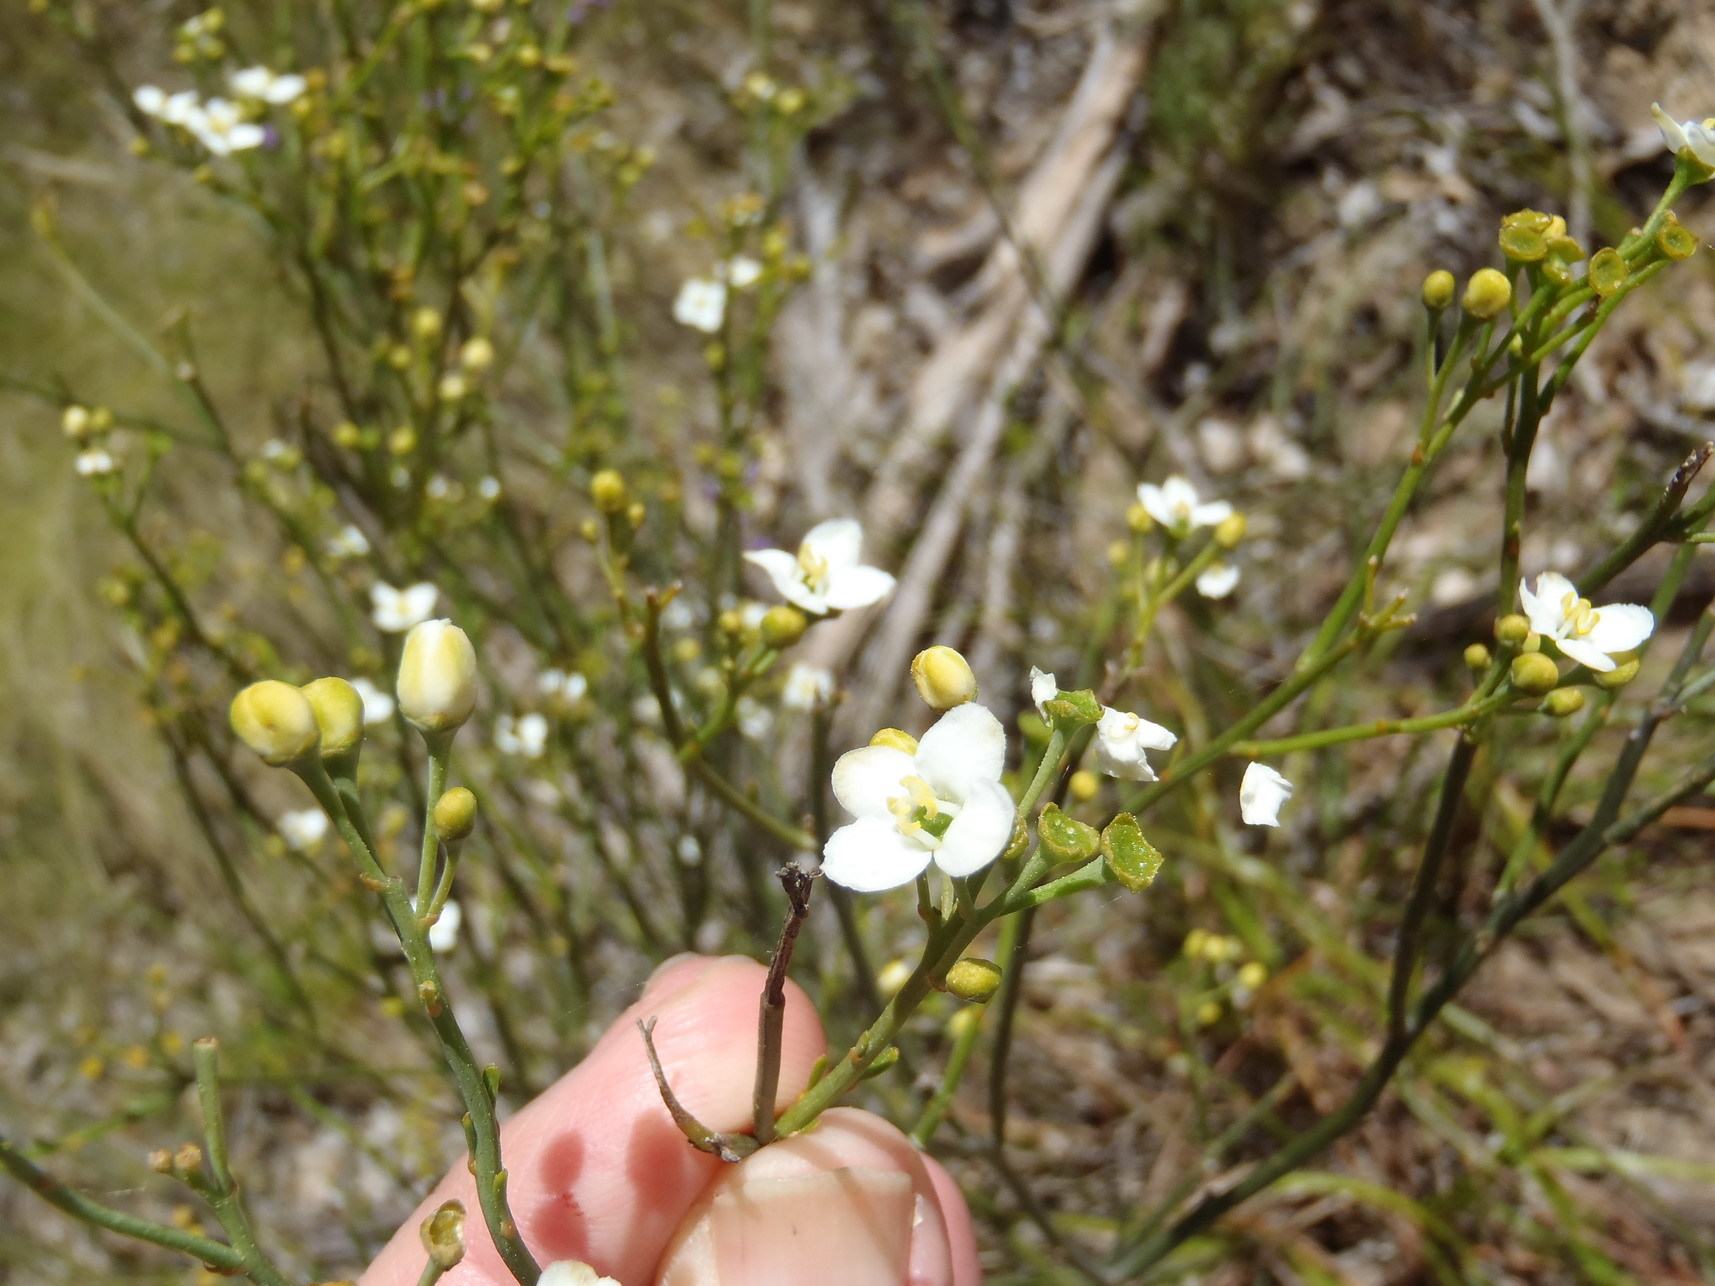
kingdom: Plantae
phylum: Tracheophyta
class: Magnoliopsida
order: Solanales
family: Montiniaceae
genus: Montinia
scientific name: Montinia caryophyllacea
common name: Wild clove-bush
